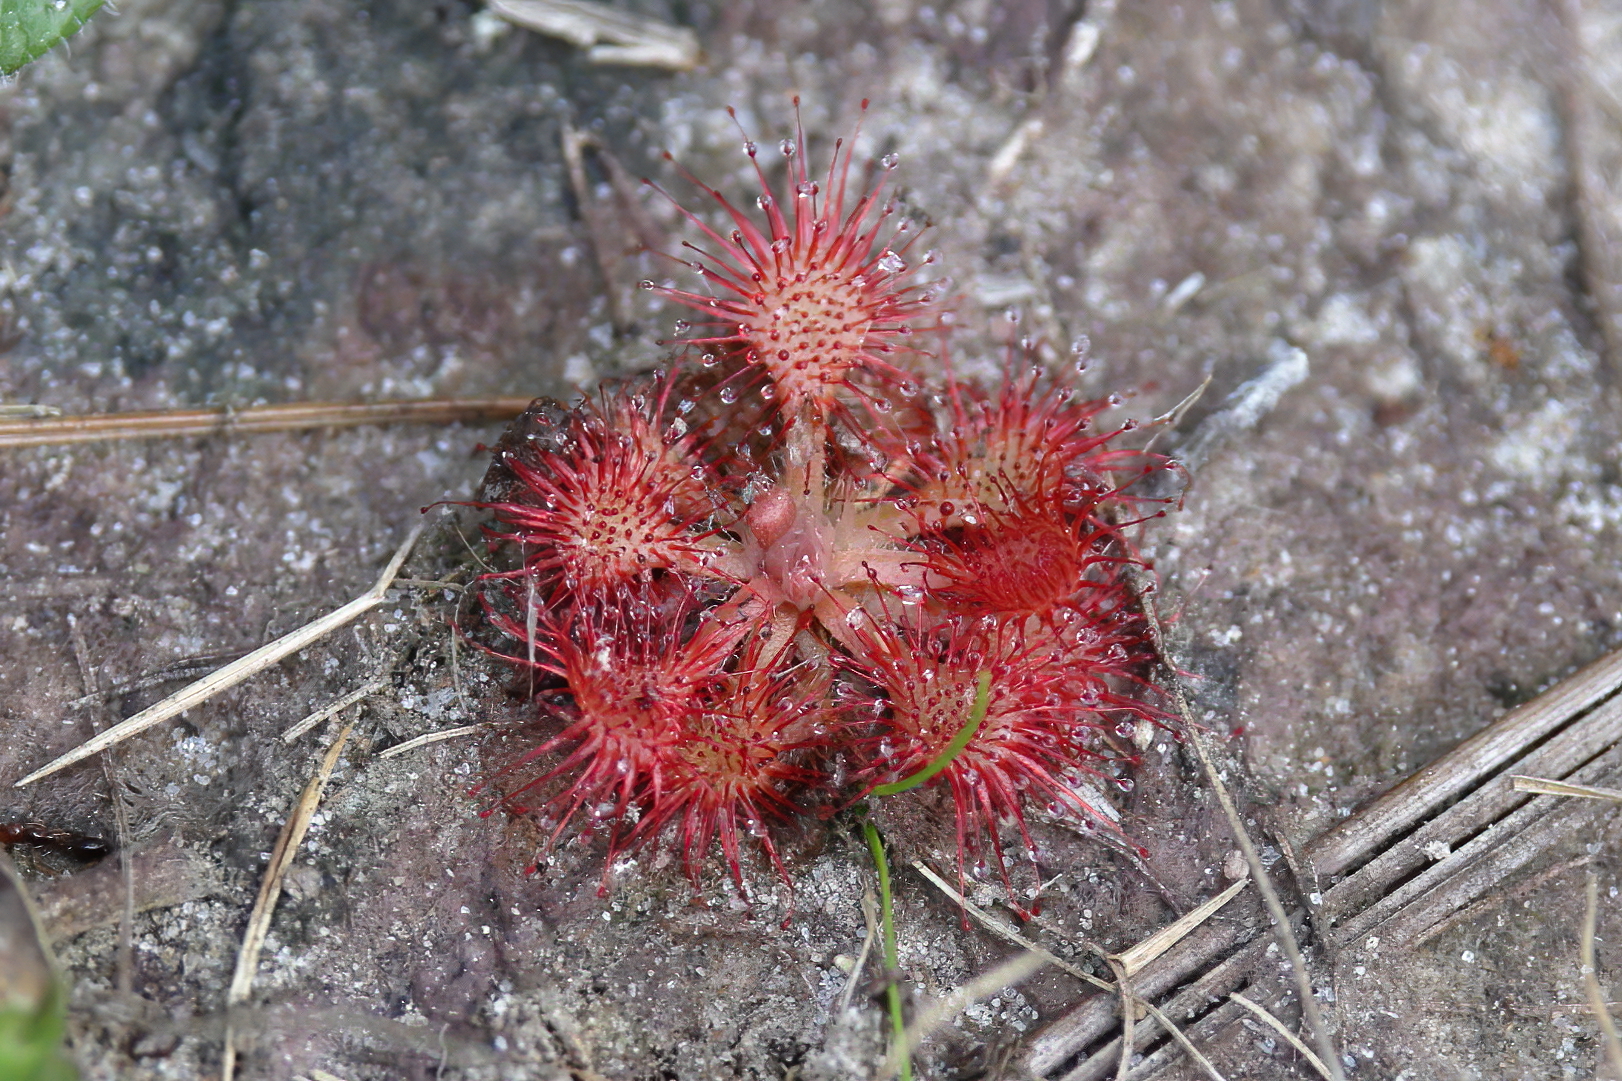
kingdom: Plantae
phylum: Tracheophyta
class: Magnoliopsida
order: Caryophyllales
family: Droseraceae
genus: Drosera
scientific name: Drosera capillaris
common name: Pink sundew
